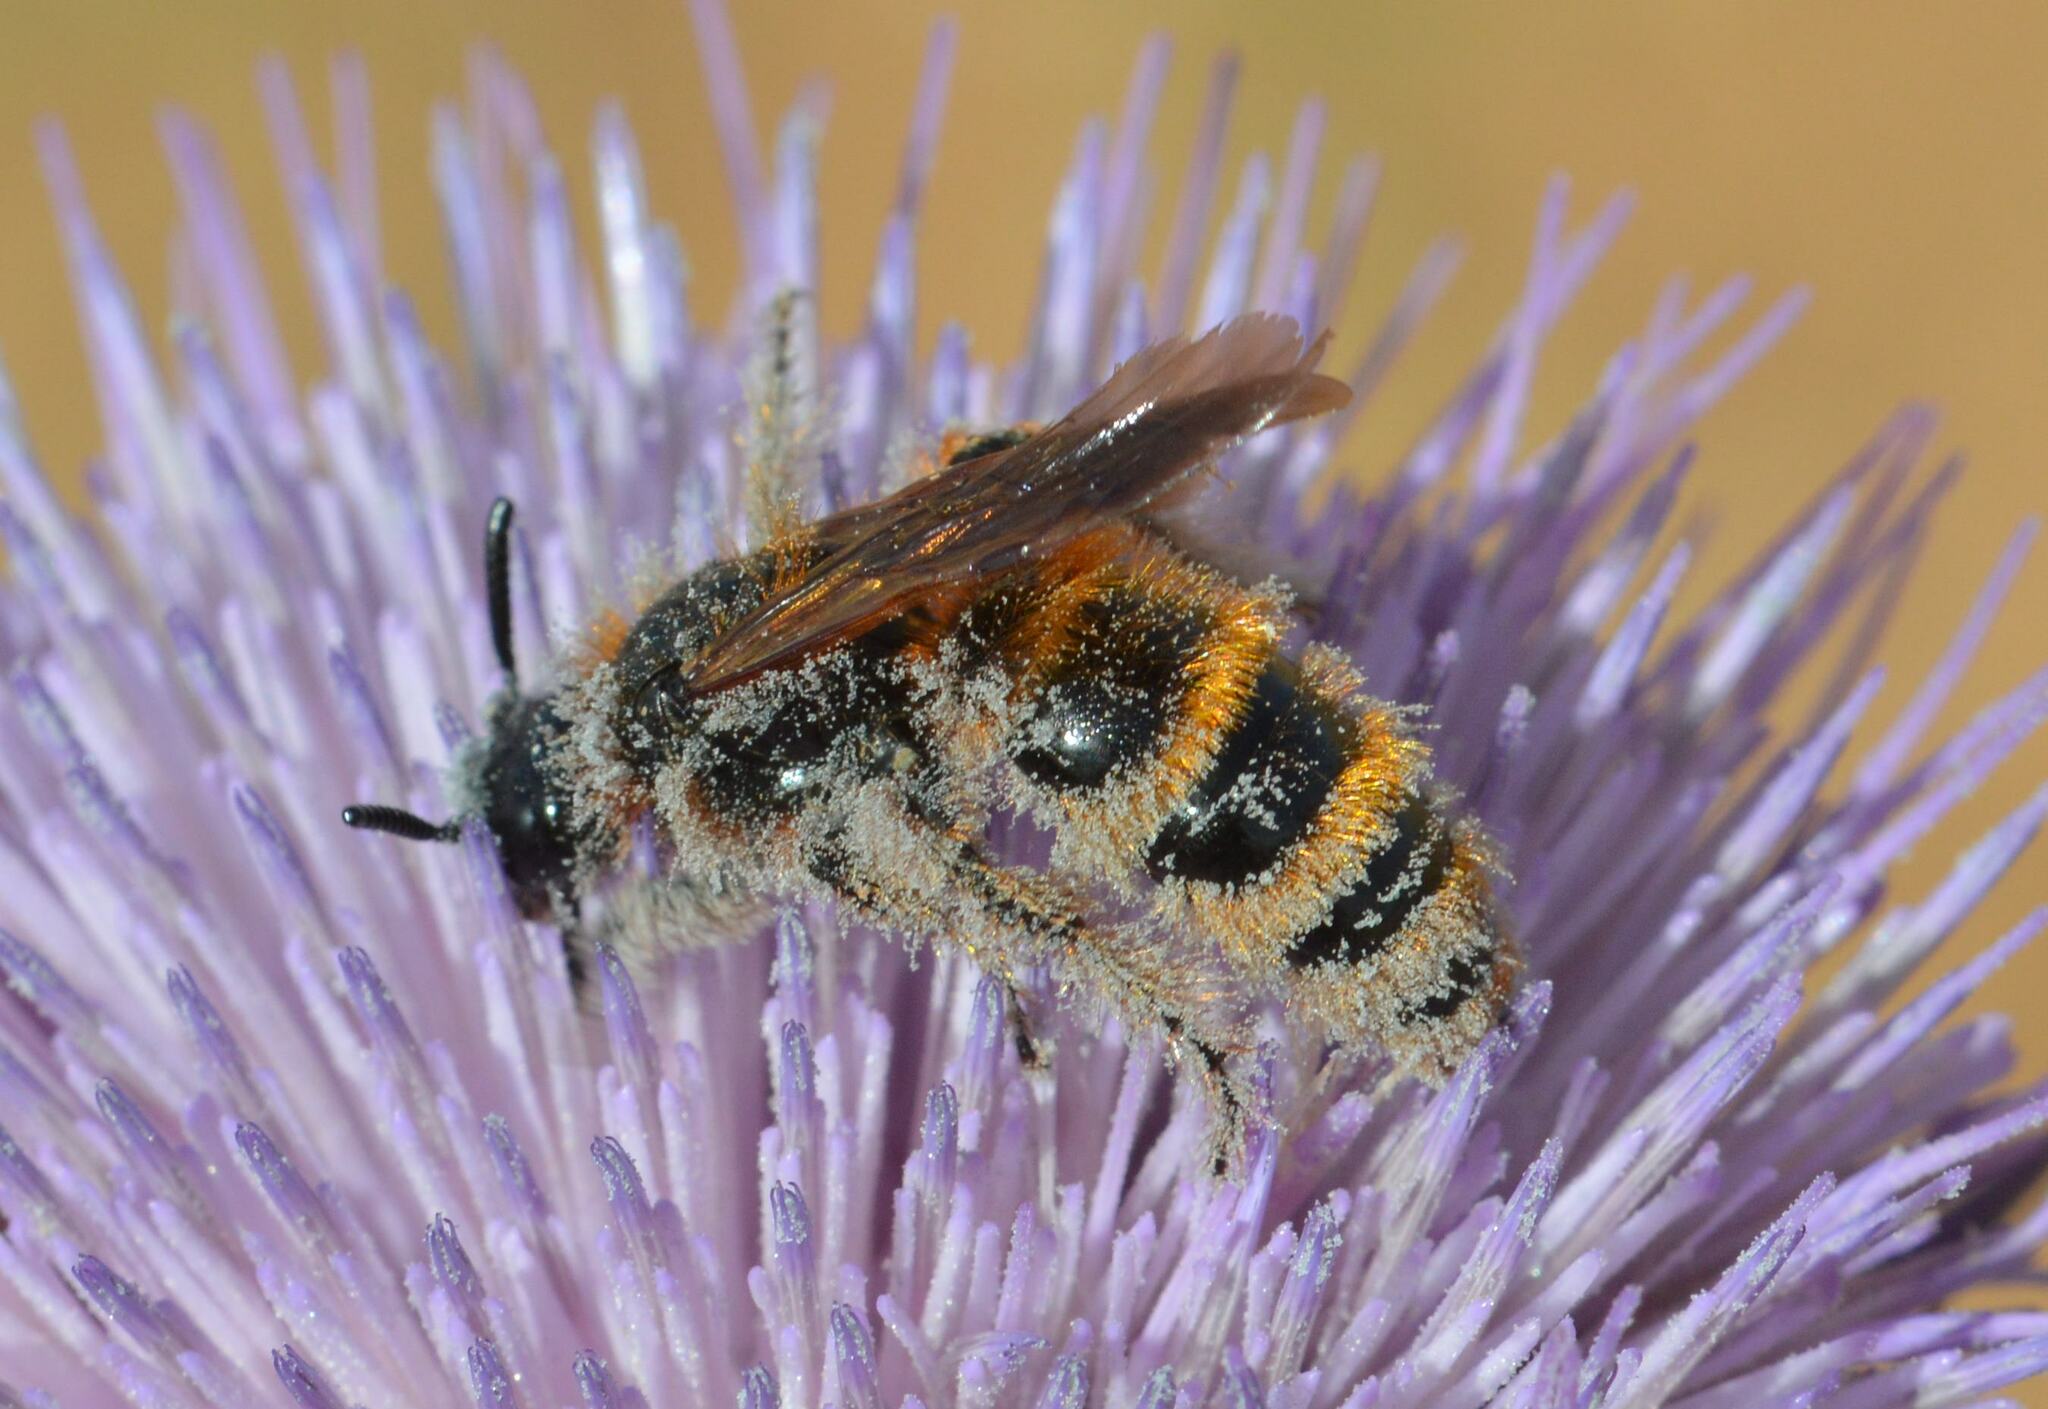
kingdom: Animalia
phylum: Arthropoda
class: Insecta
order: Hymenoptera
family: Scoliidae
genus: Dasyscolia
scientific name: Dasyscolia ciliata
